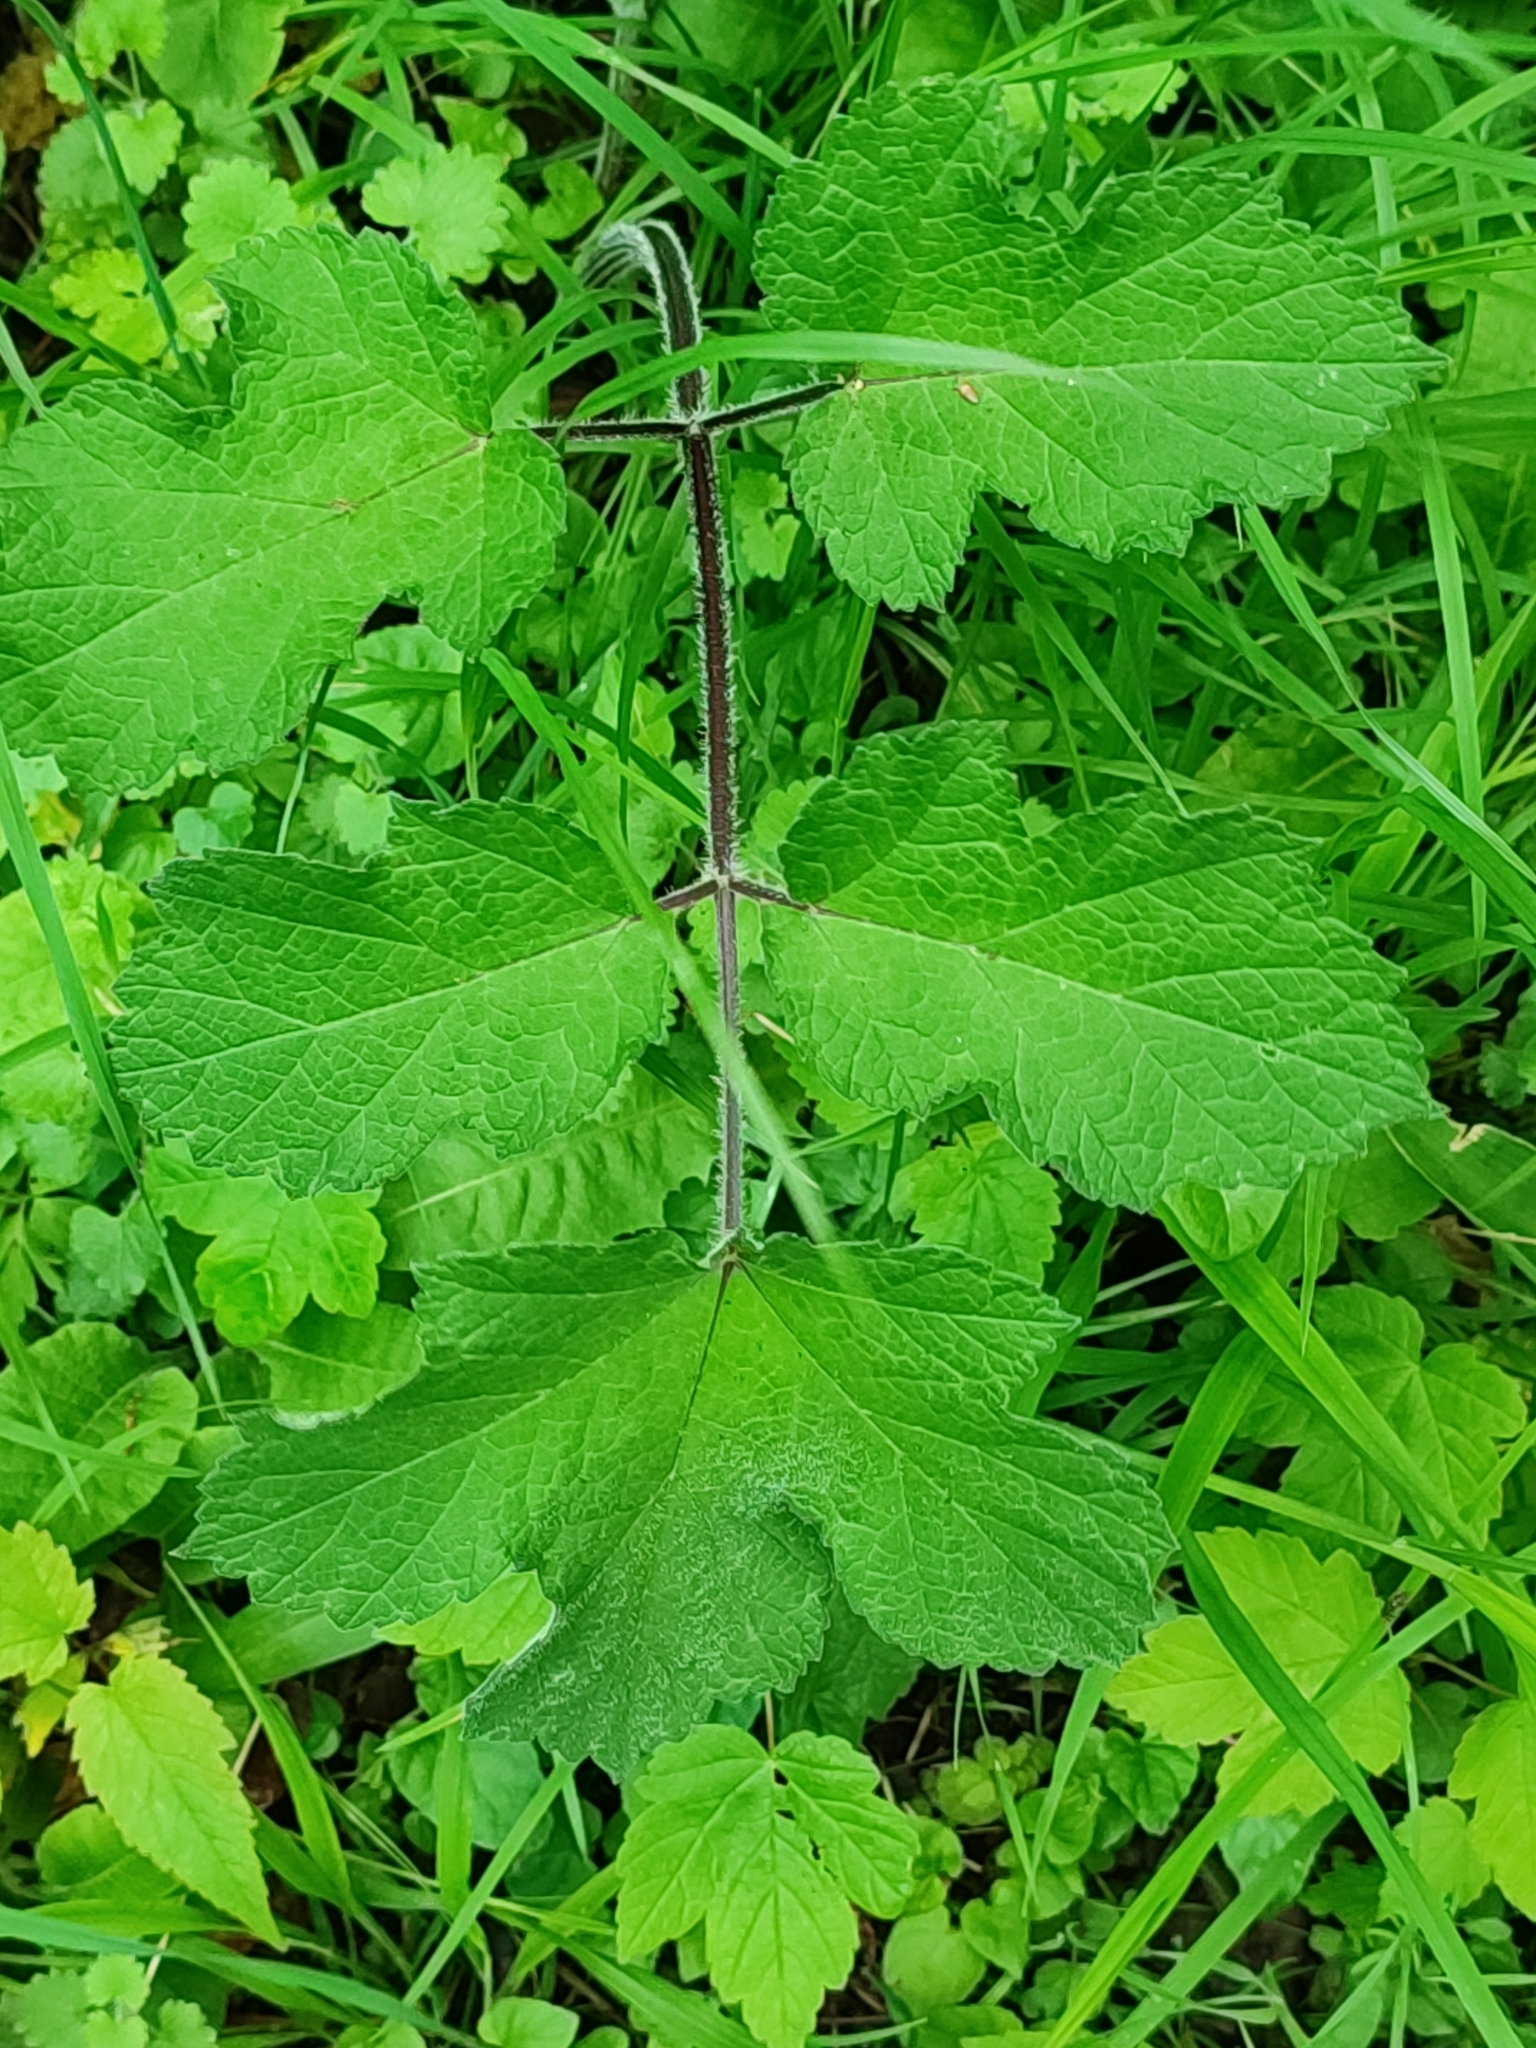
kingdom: Plantae
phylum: Tracheophyta
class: Magnoliopsida
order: Apiales
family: Apiaceae
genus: Heracleum
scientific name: Heracleum sphondylium
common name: Hogweed
